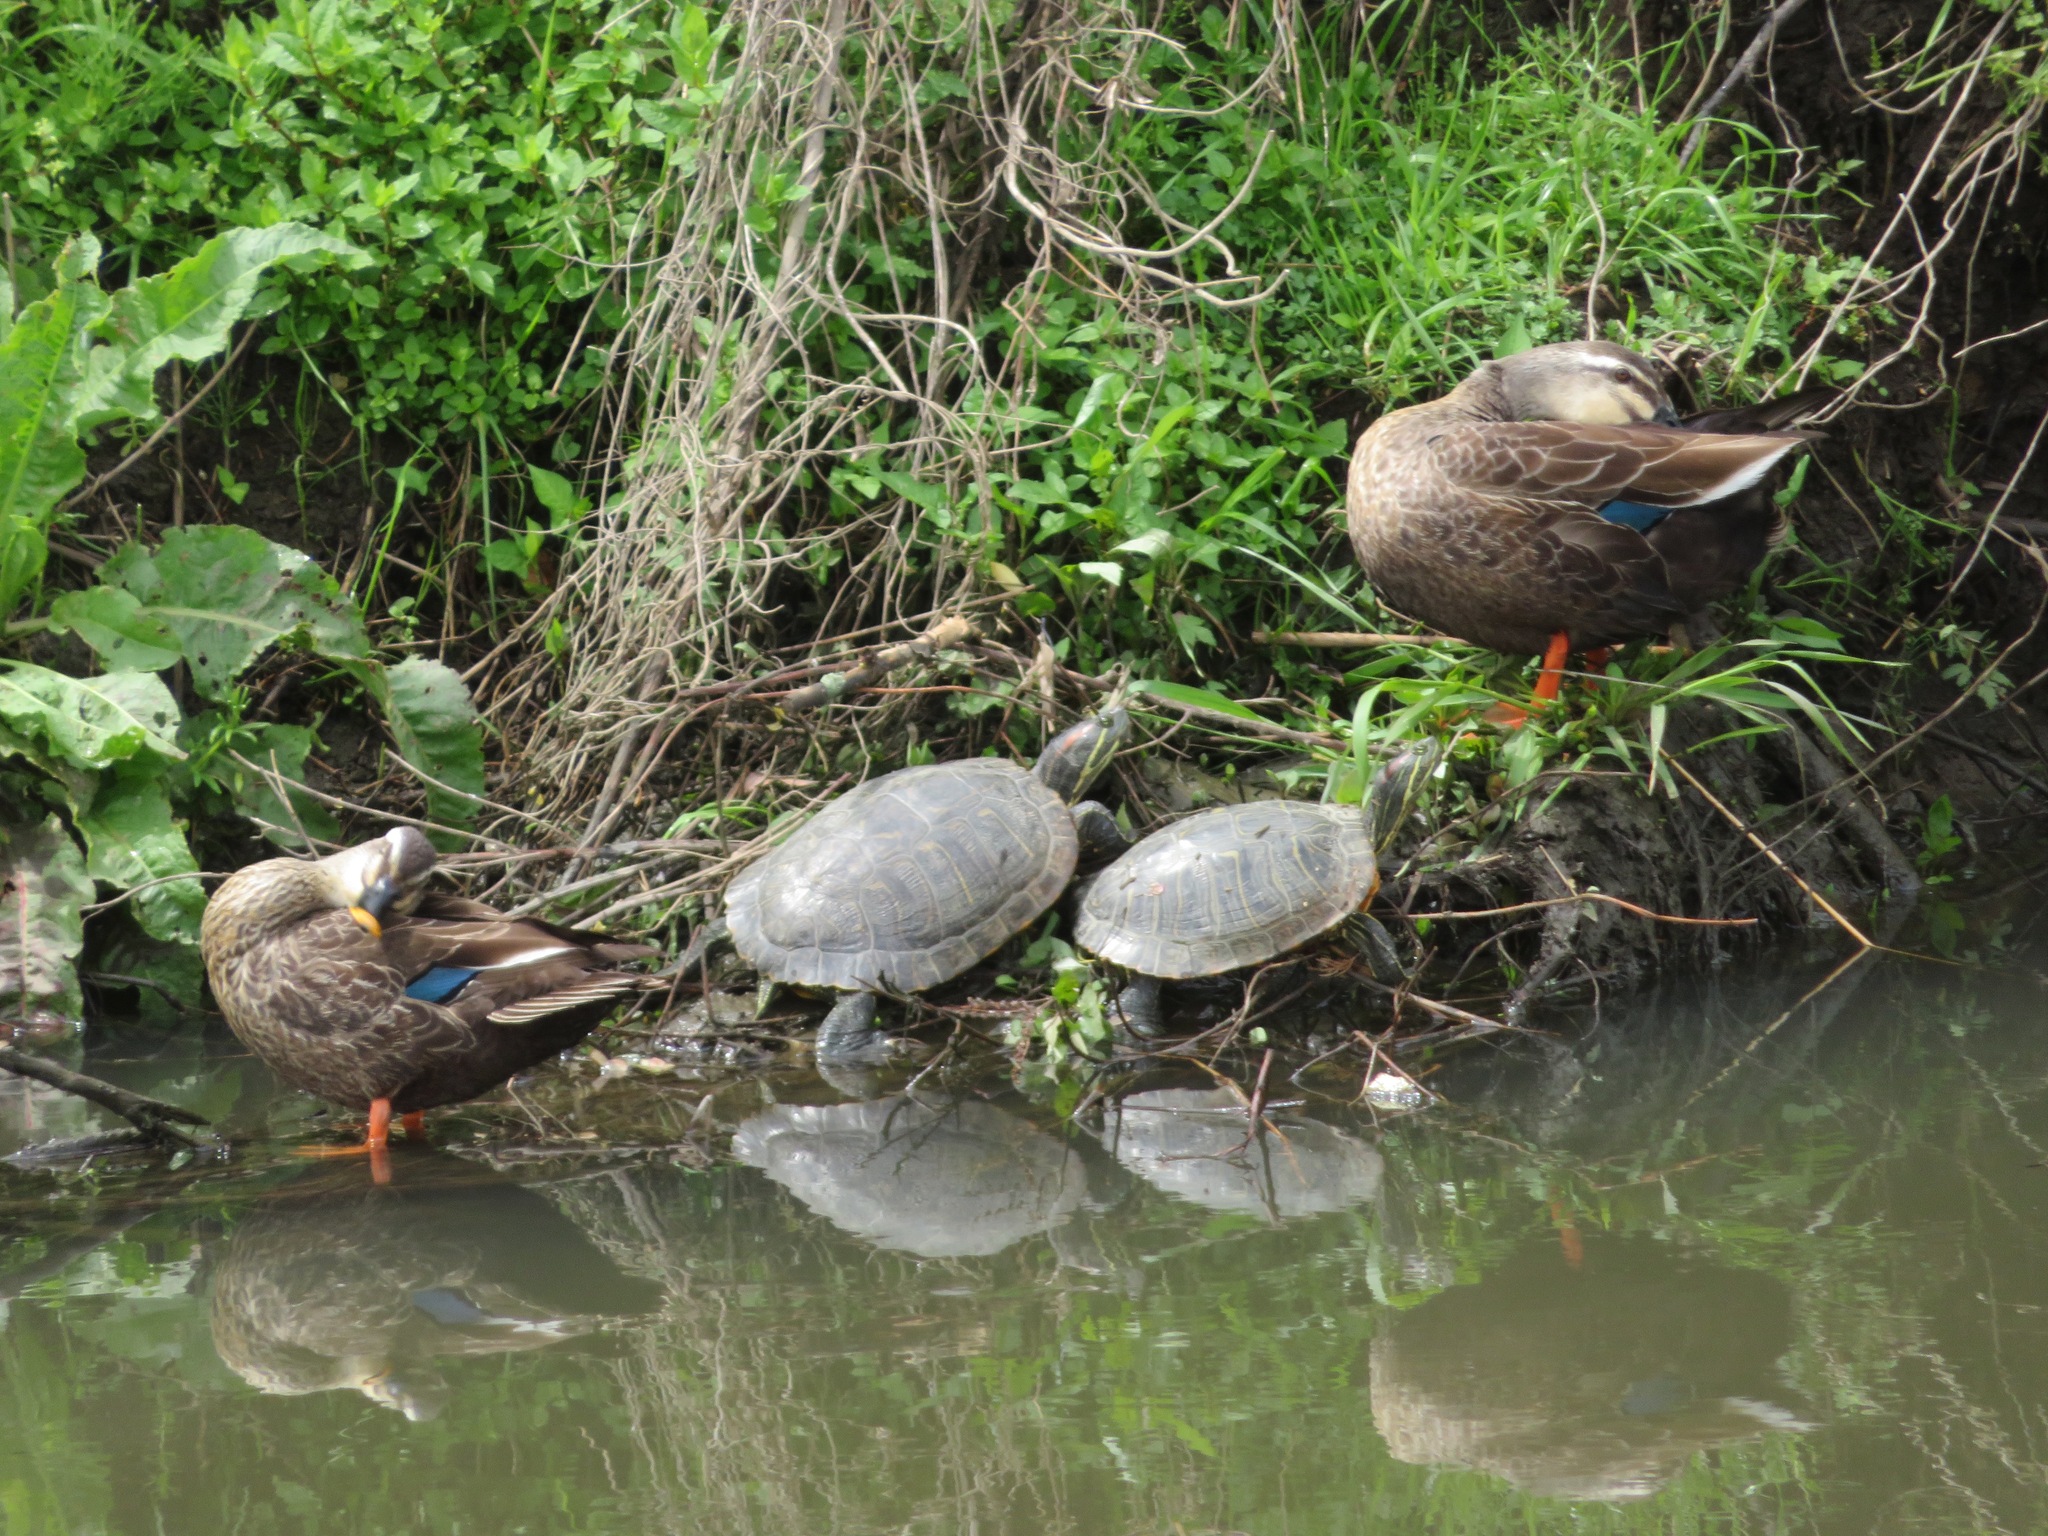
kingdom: Animalia
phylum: Chordata
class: Testudines
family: Emydidae
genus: Trachemys
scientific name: Trachemys scripta
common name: Slider
